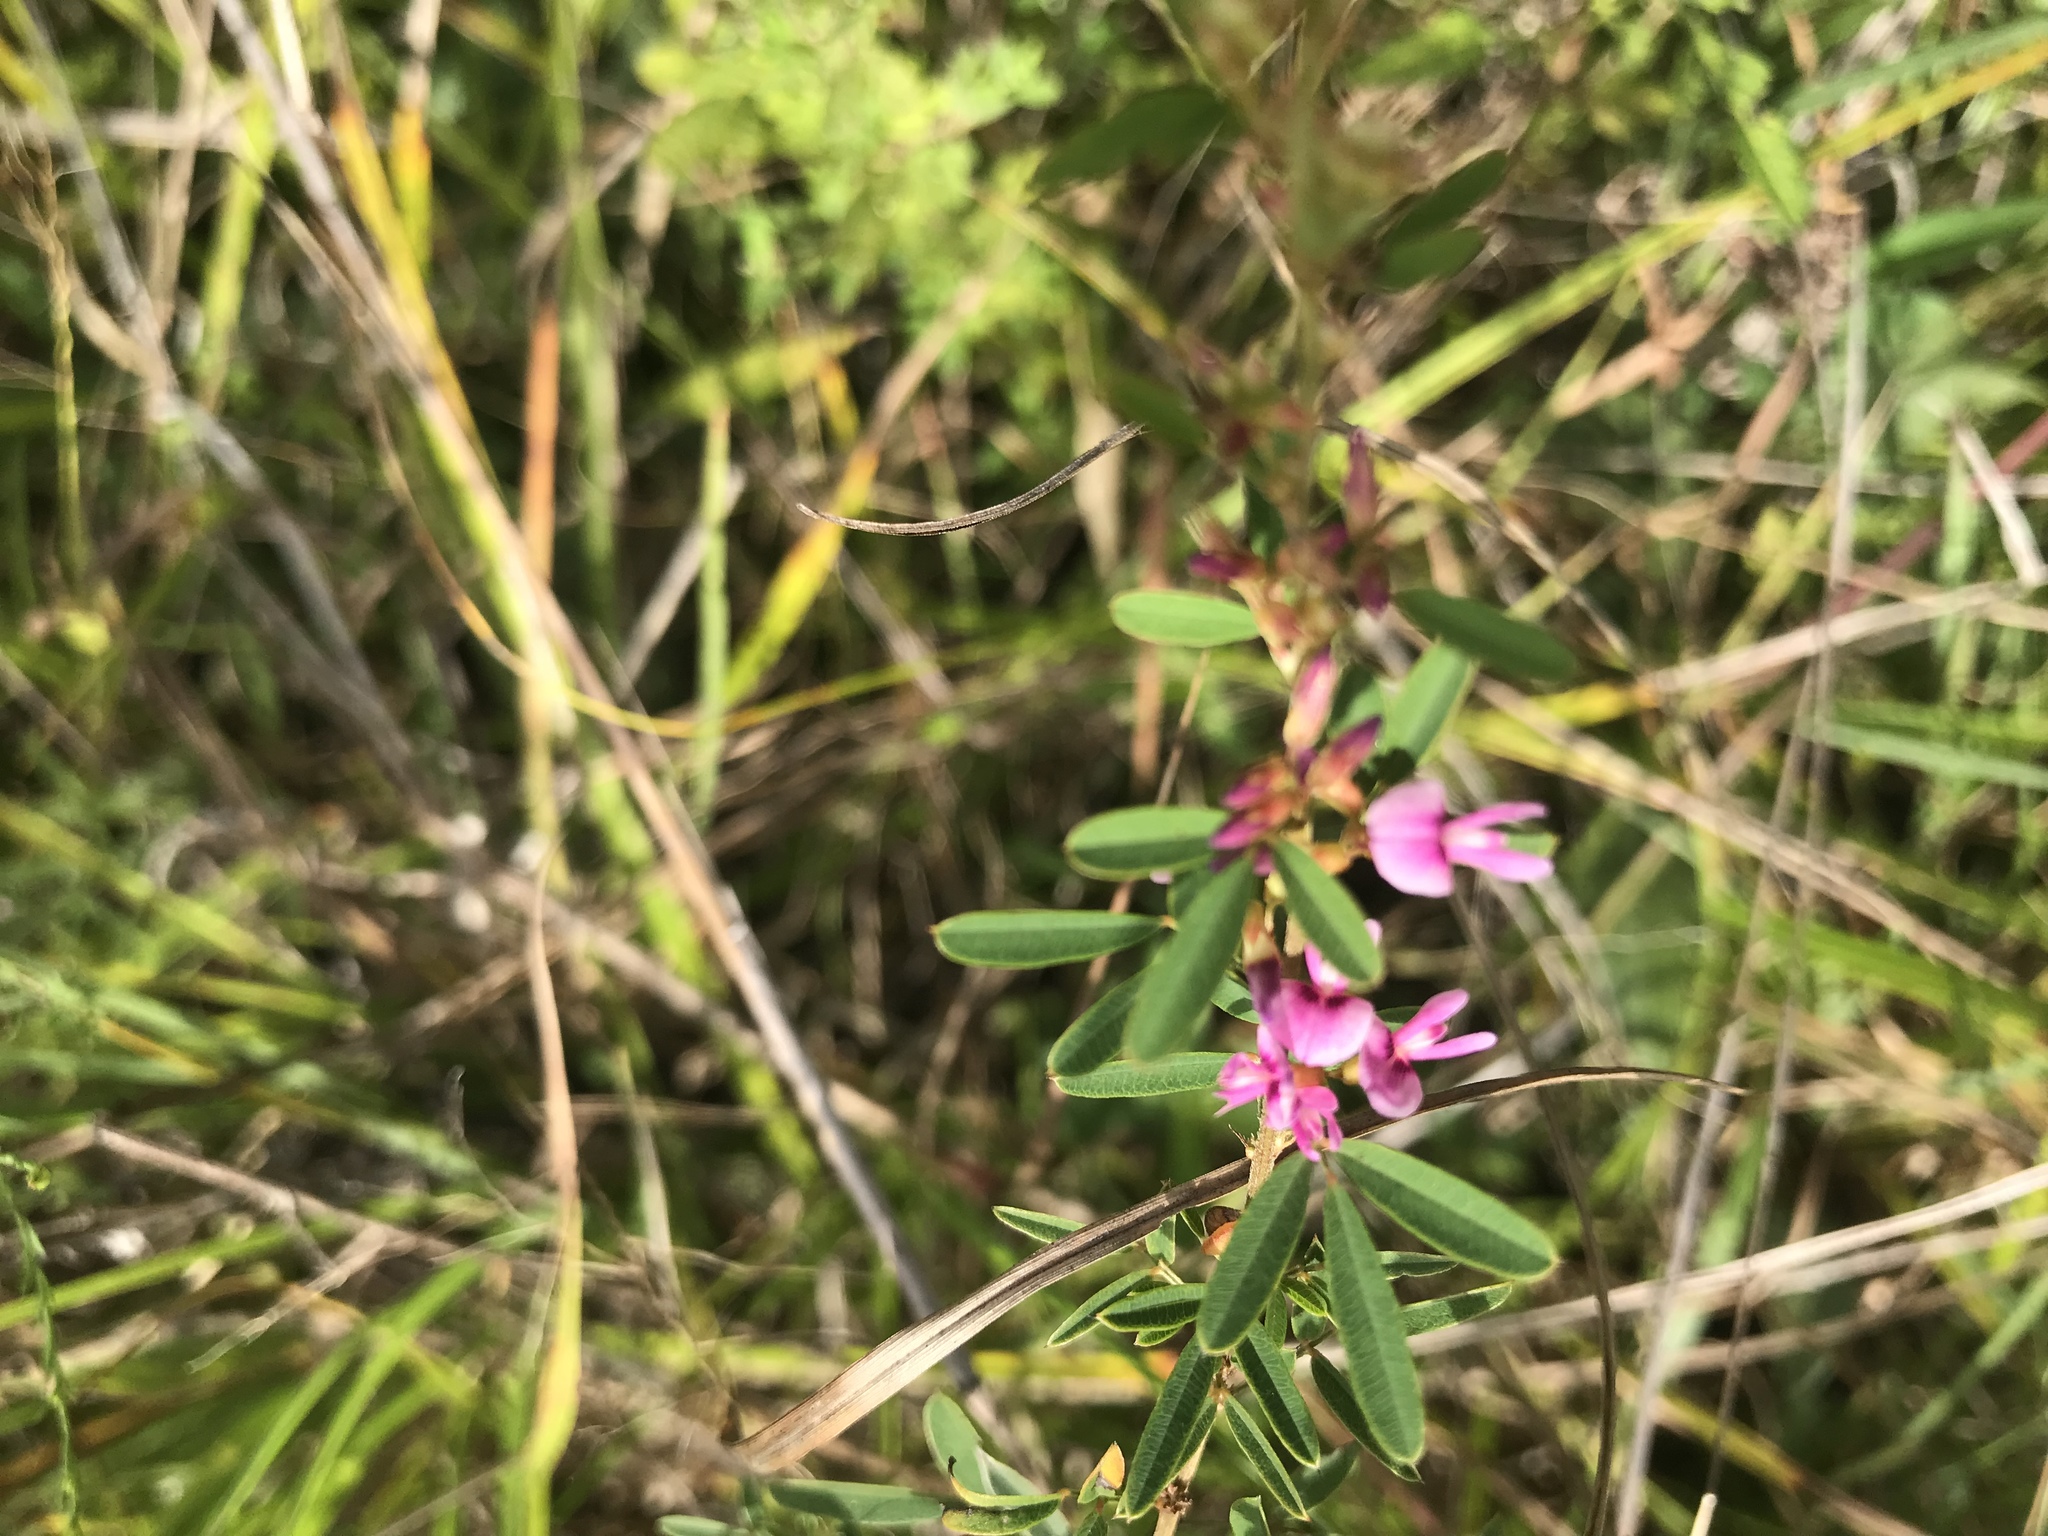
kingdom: Plantae
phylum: Tracheophyta
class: Magnoliopsida
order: Fabales
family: Fabaceae
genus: Lespedeza
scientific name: Lespedeza virginica
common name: Slender bush-clover
